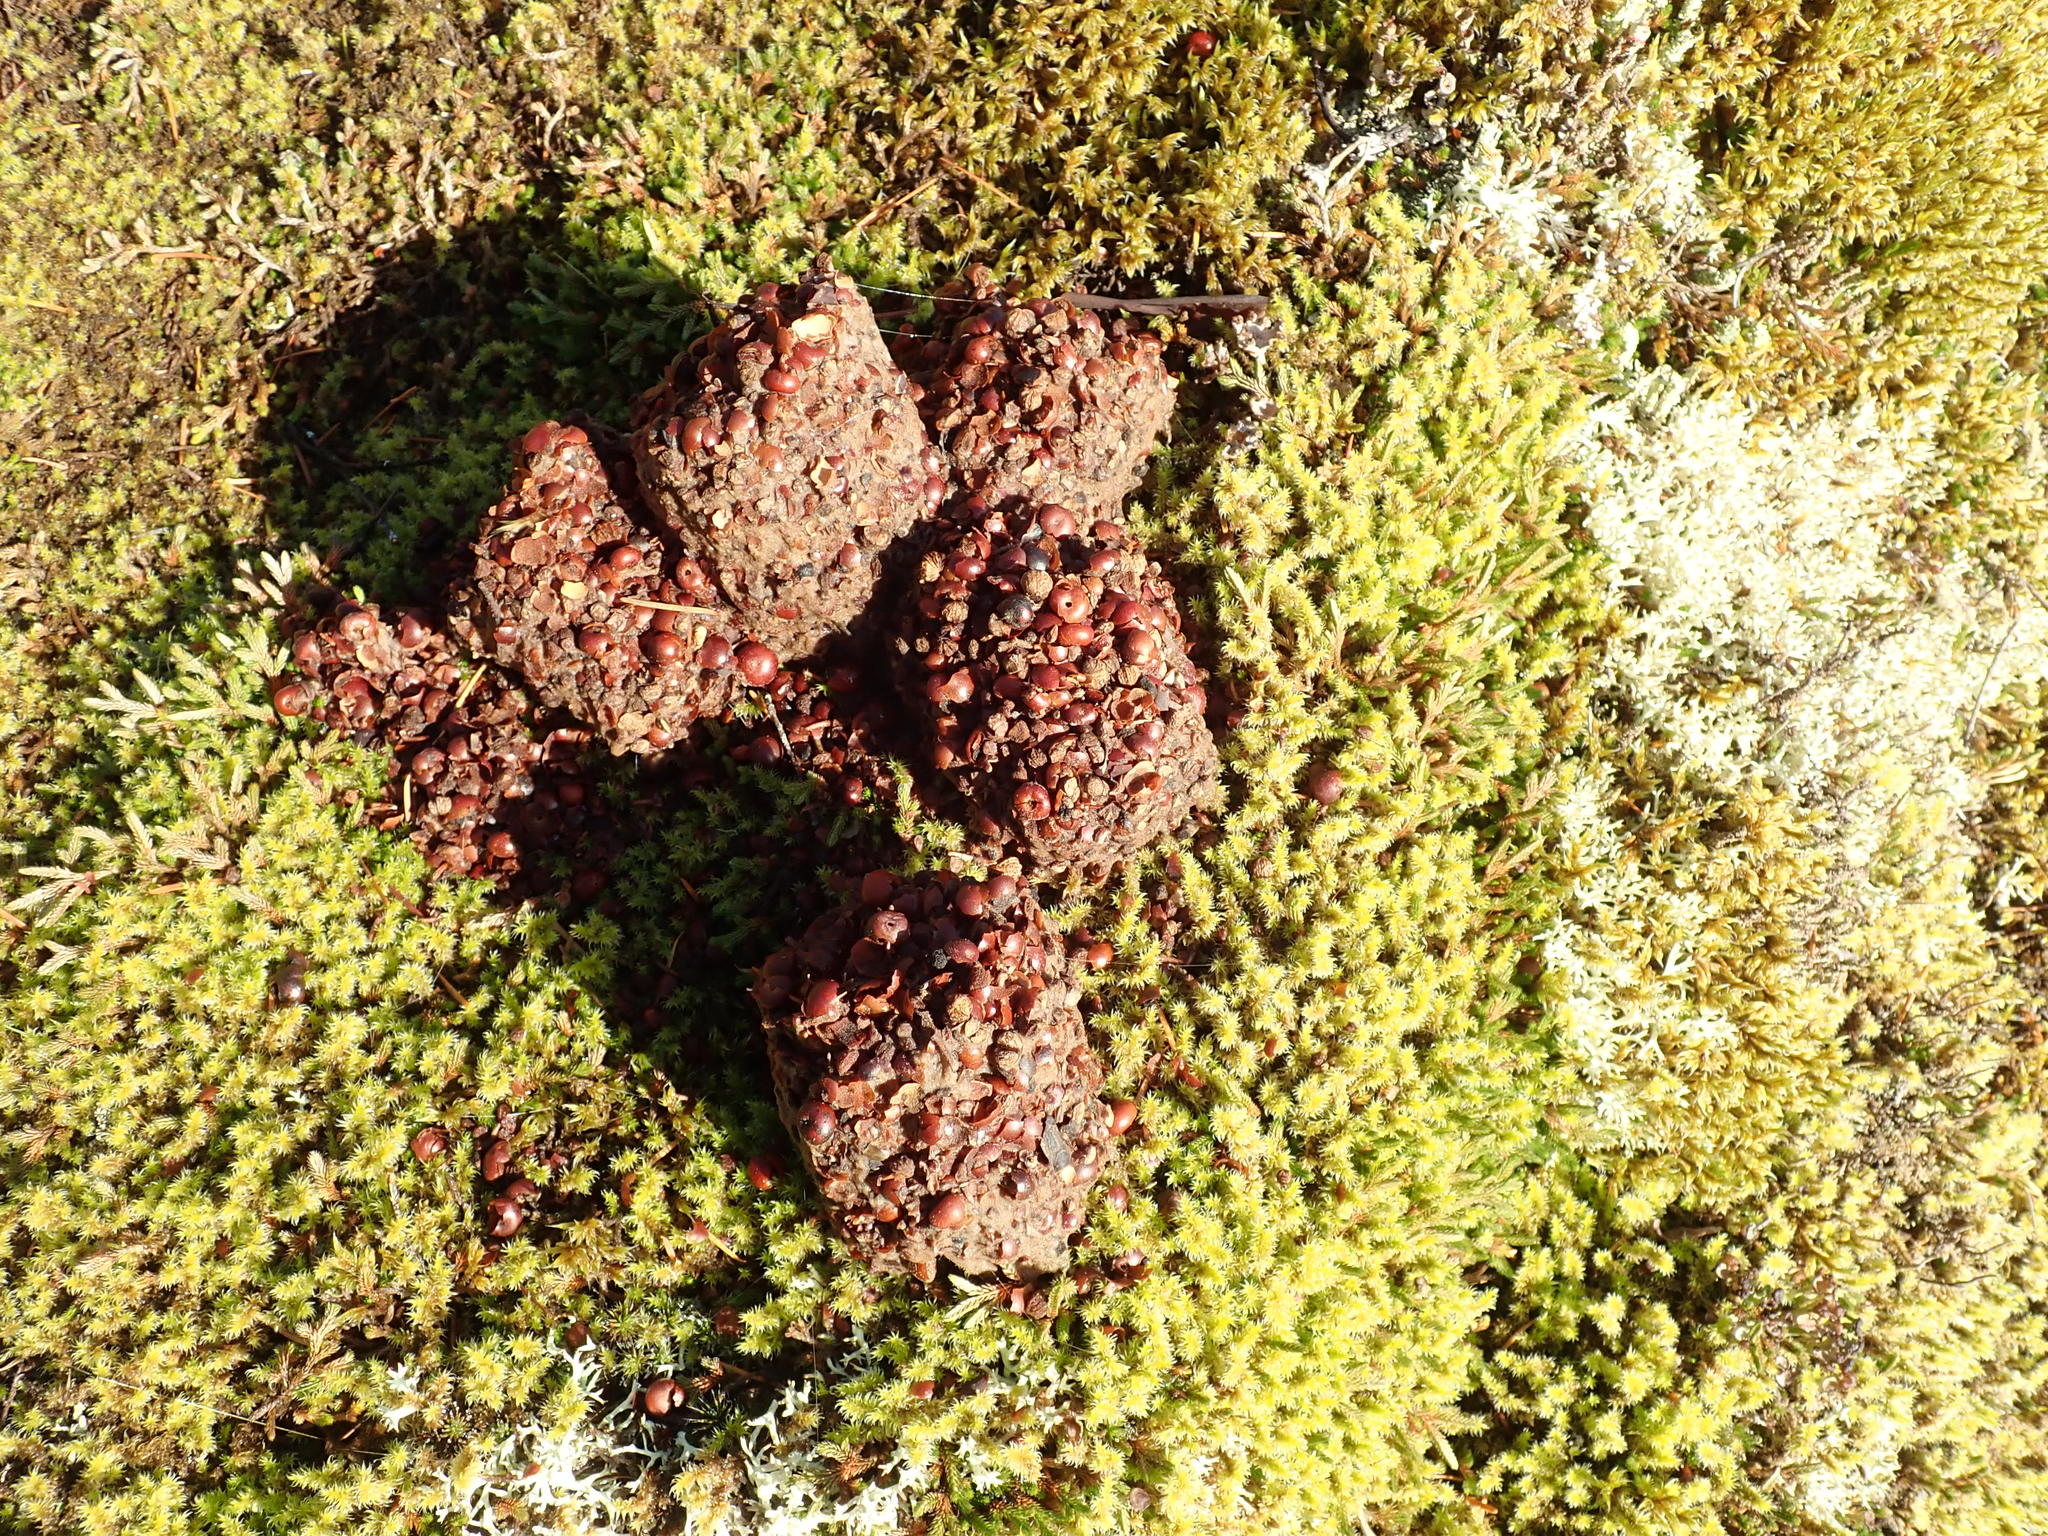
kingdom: Animalia
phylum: Chordata
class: Mammalia
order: Carnivora
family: Ursidae
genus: Ursus
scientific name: Ursus americanus
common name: American black bear
